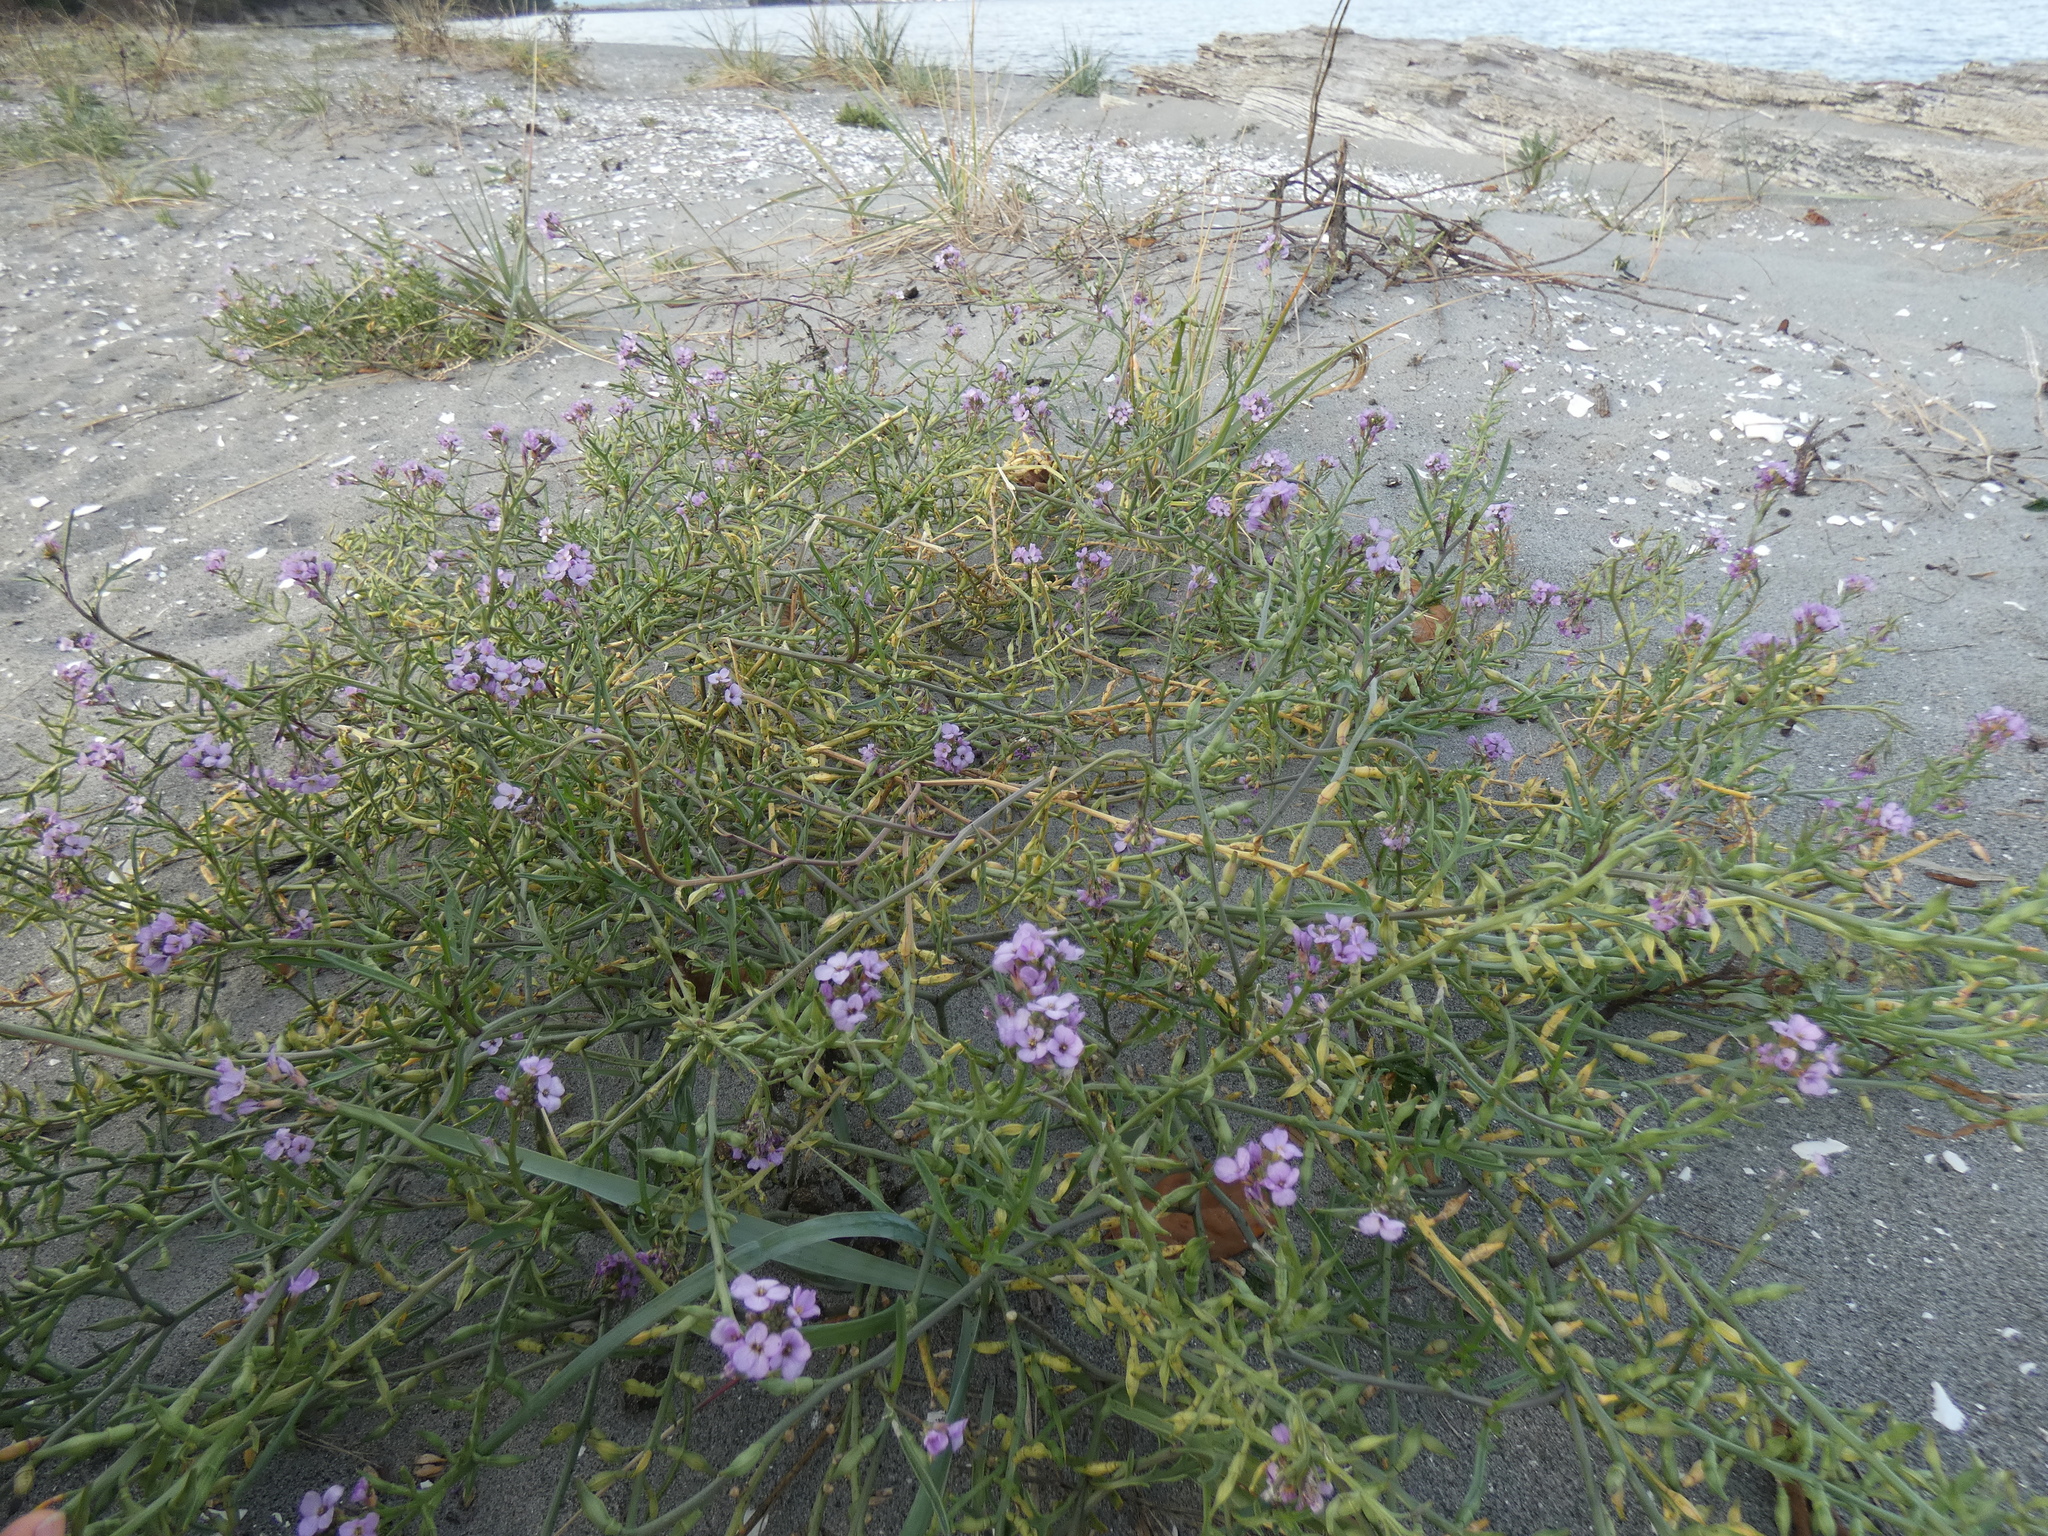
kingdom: Plantae
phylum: Tracheophyta
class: Magnoliopsida
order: Brassicales
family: Brassicaceae
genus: Cakile
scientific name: Cakile maritima
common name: Sea rocket
